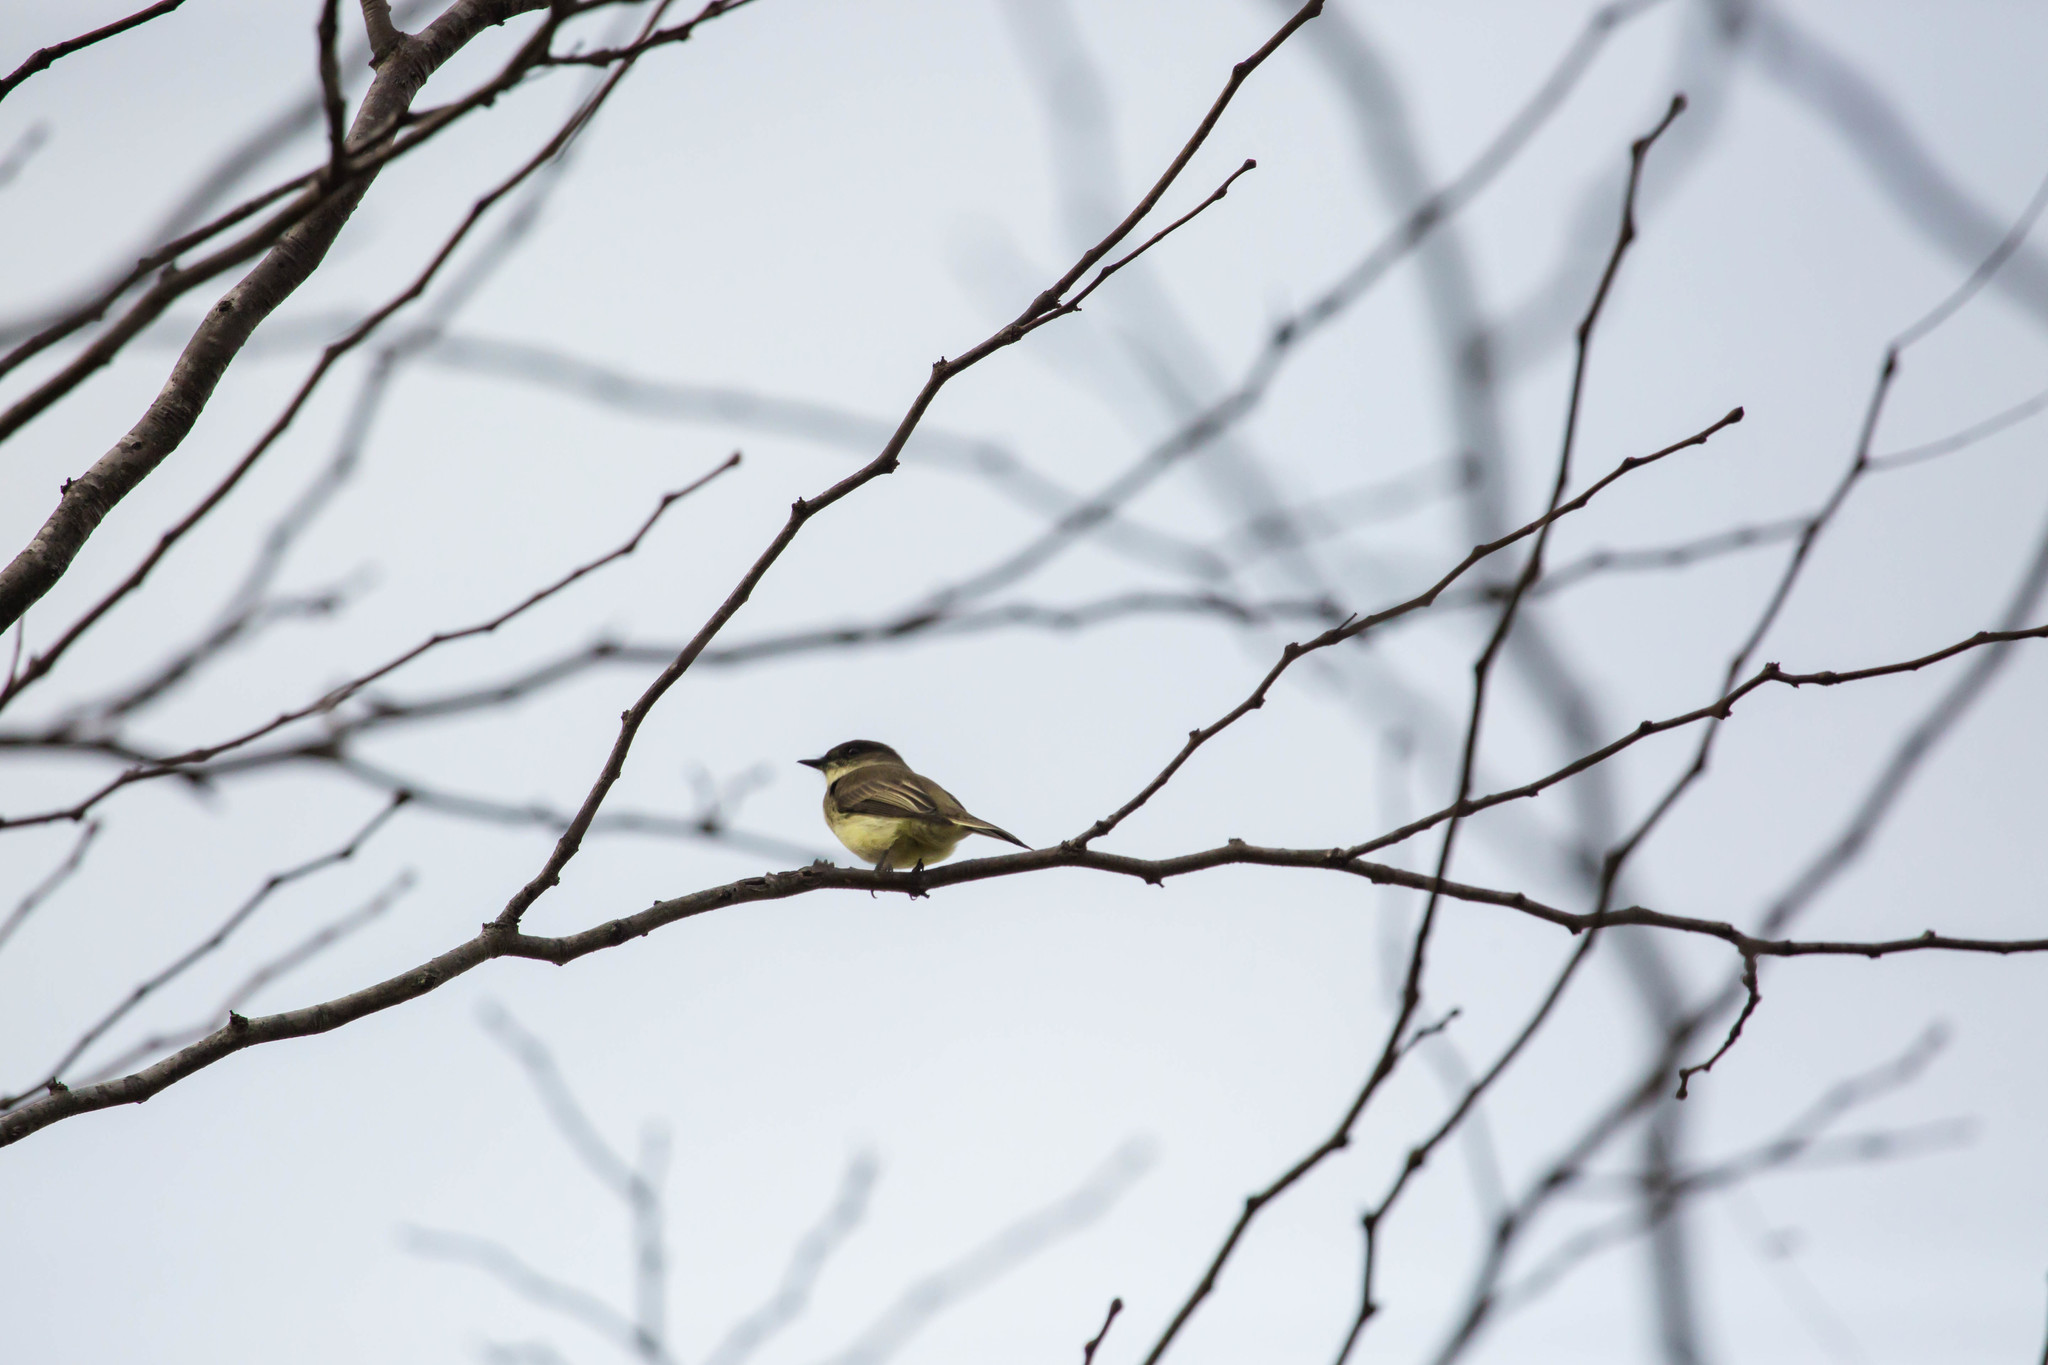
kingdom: Animalia
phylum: Chordata
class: Aves
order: Passeriformes
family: Tyrannidae
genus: Sayornis
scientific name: Sayornis phoebe
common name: Eastern phoebe
